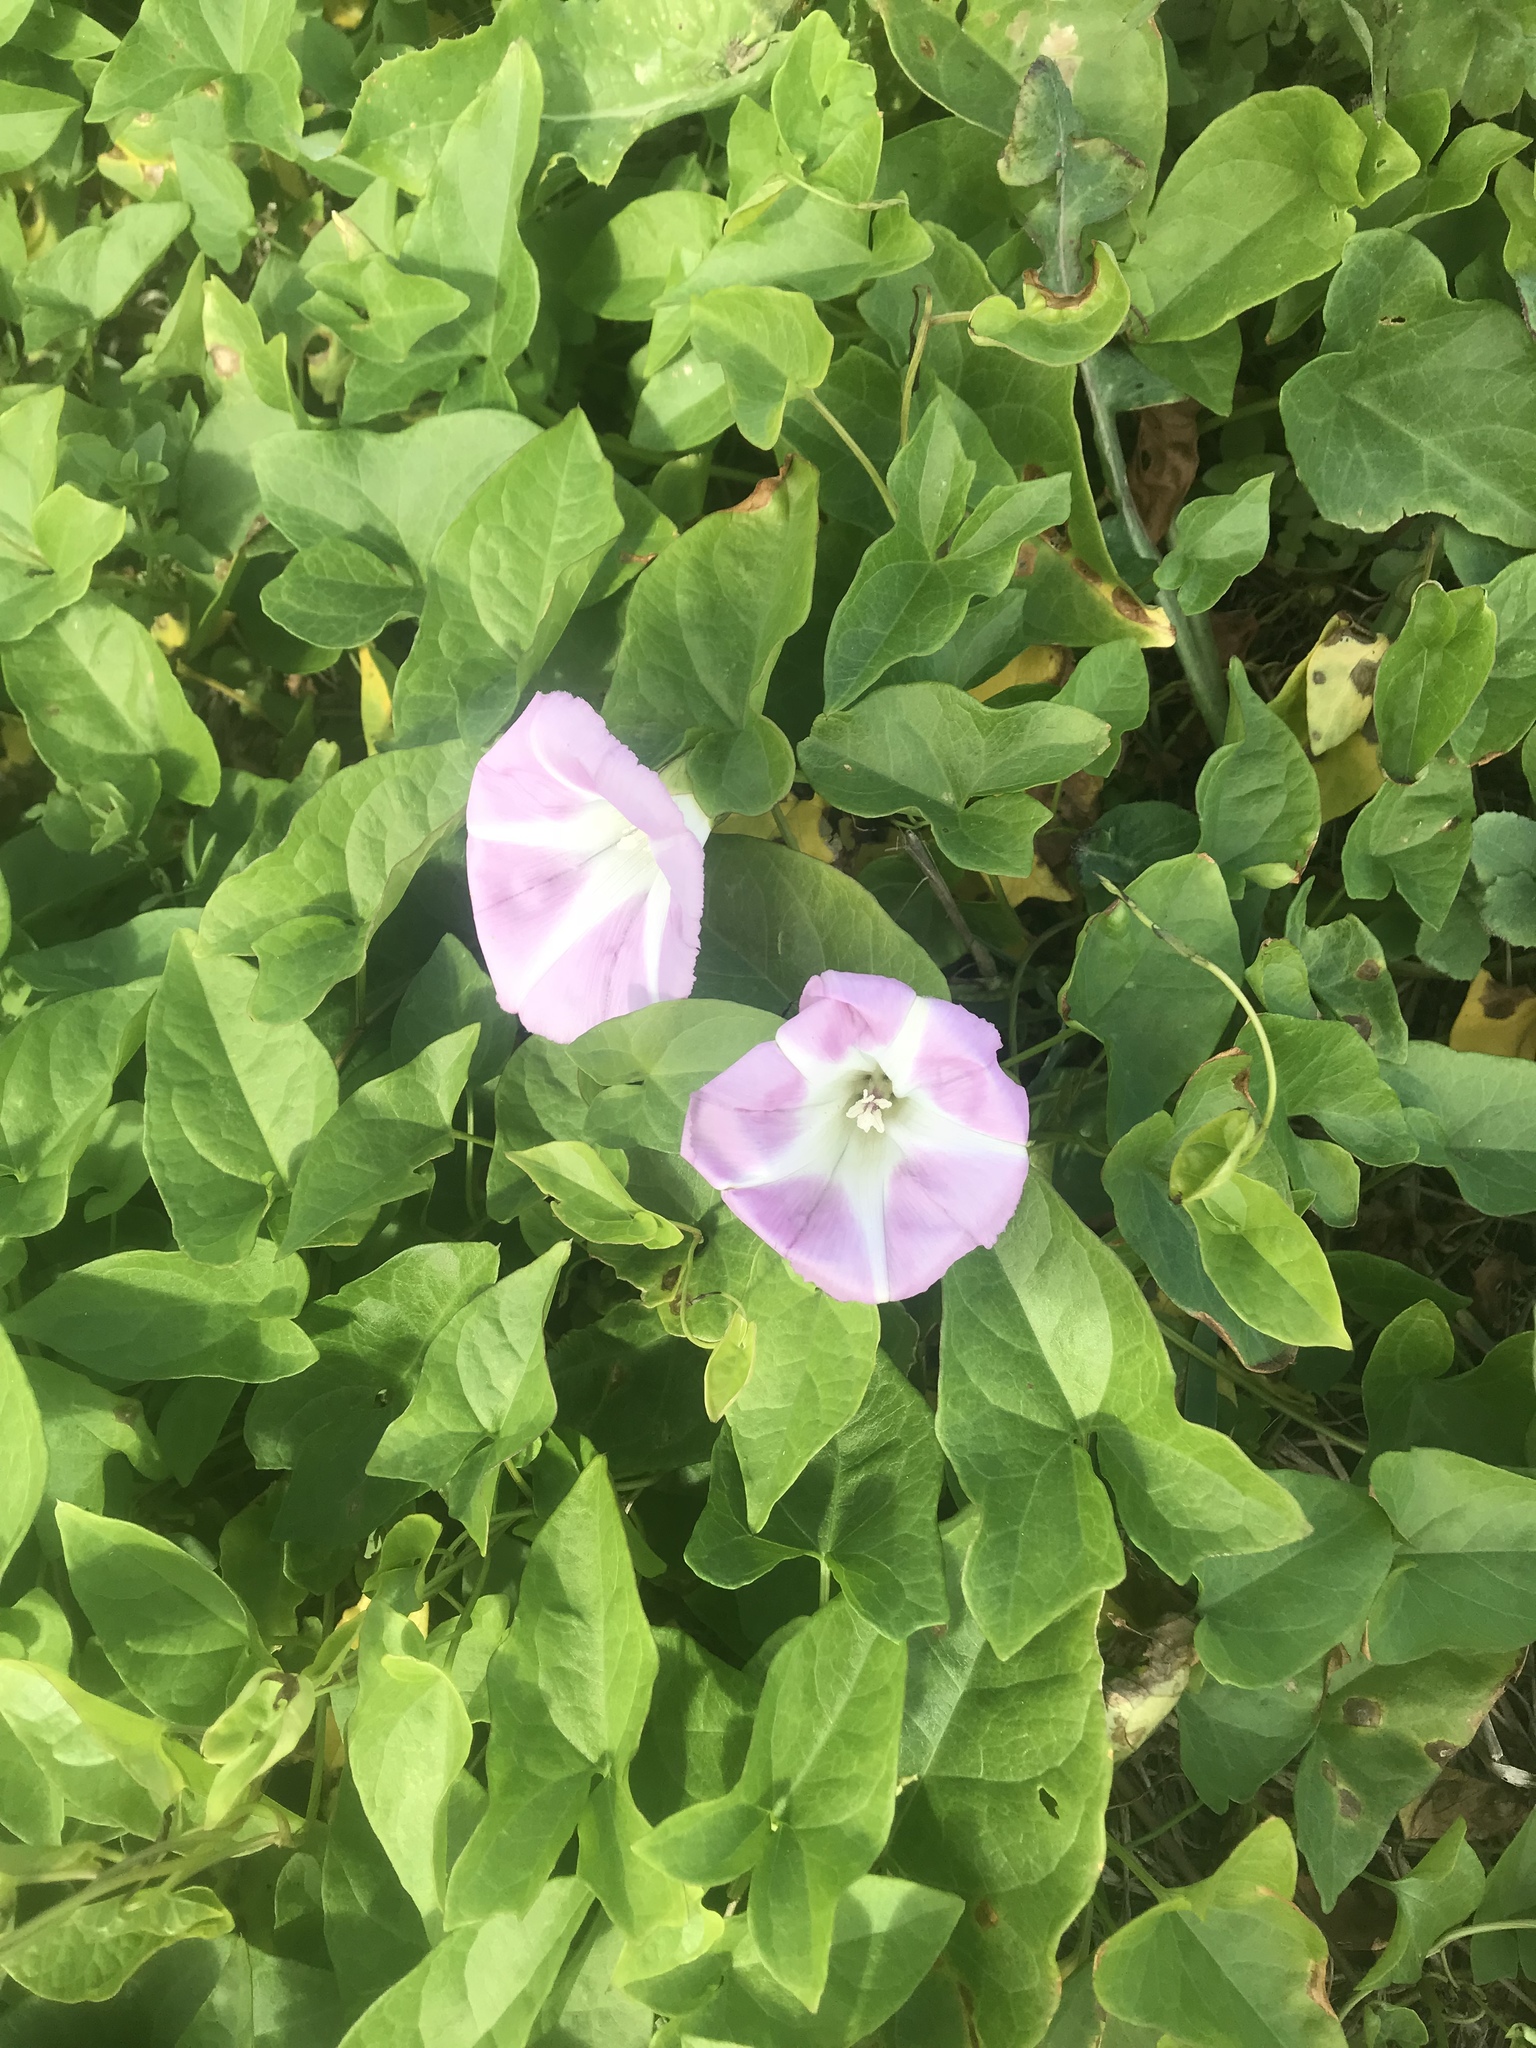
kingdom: Plantae
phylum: Tracheophyta
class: Magnoliopsida
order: Solanales
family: Convolvulaceae
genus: Calystegia
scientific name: Calystegia sepium
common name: Hedge bindweed
